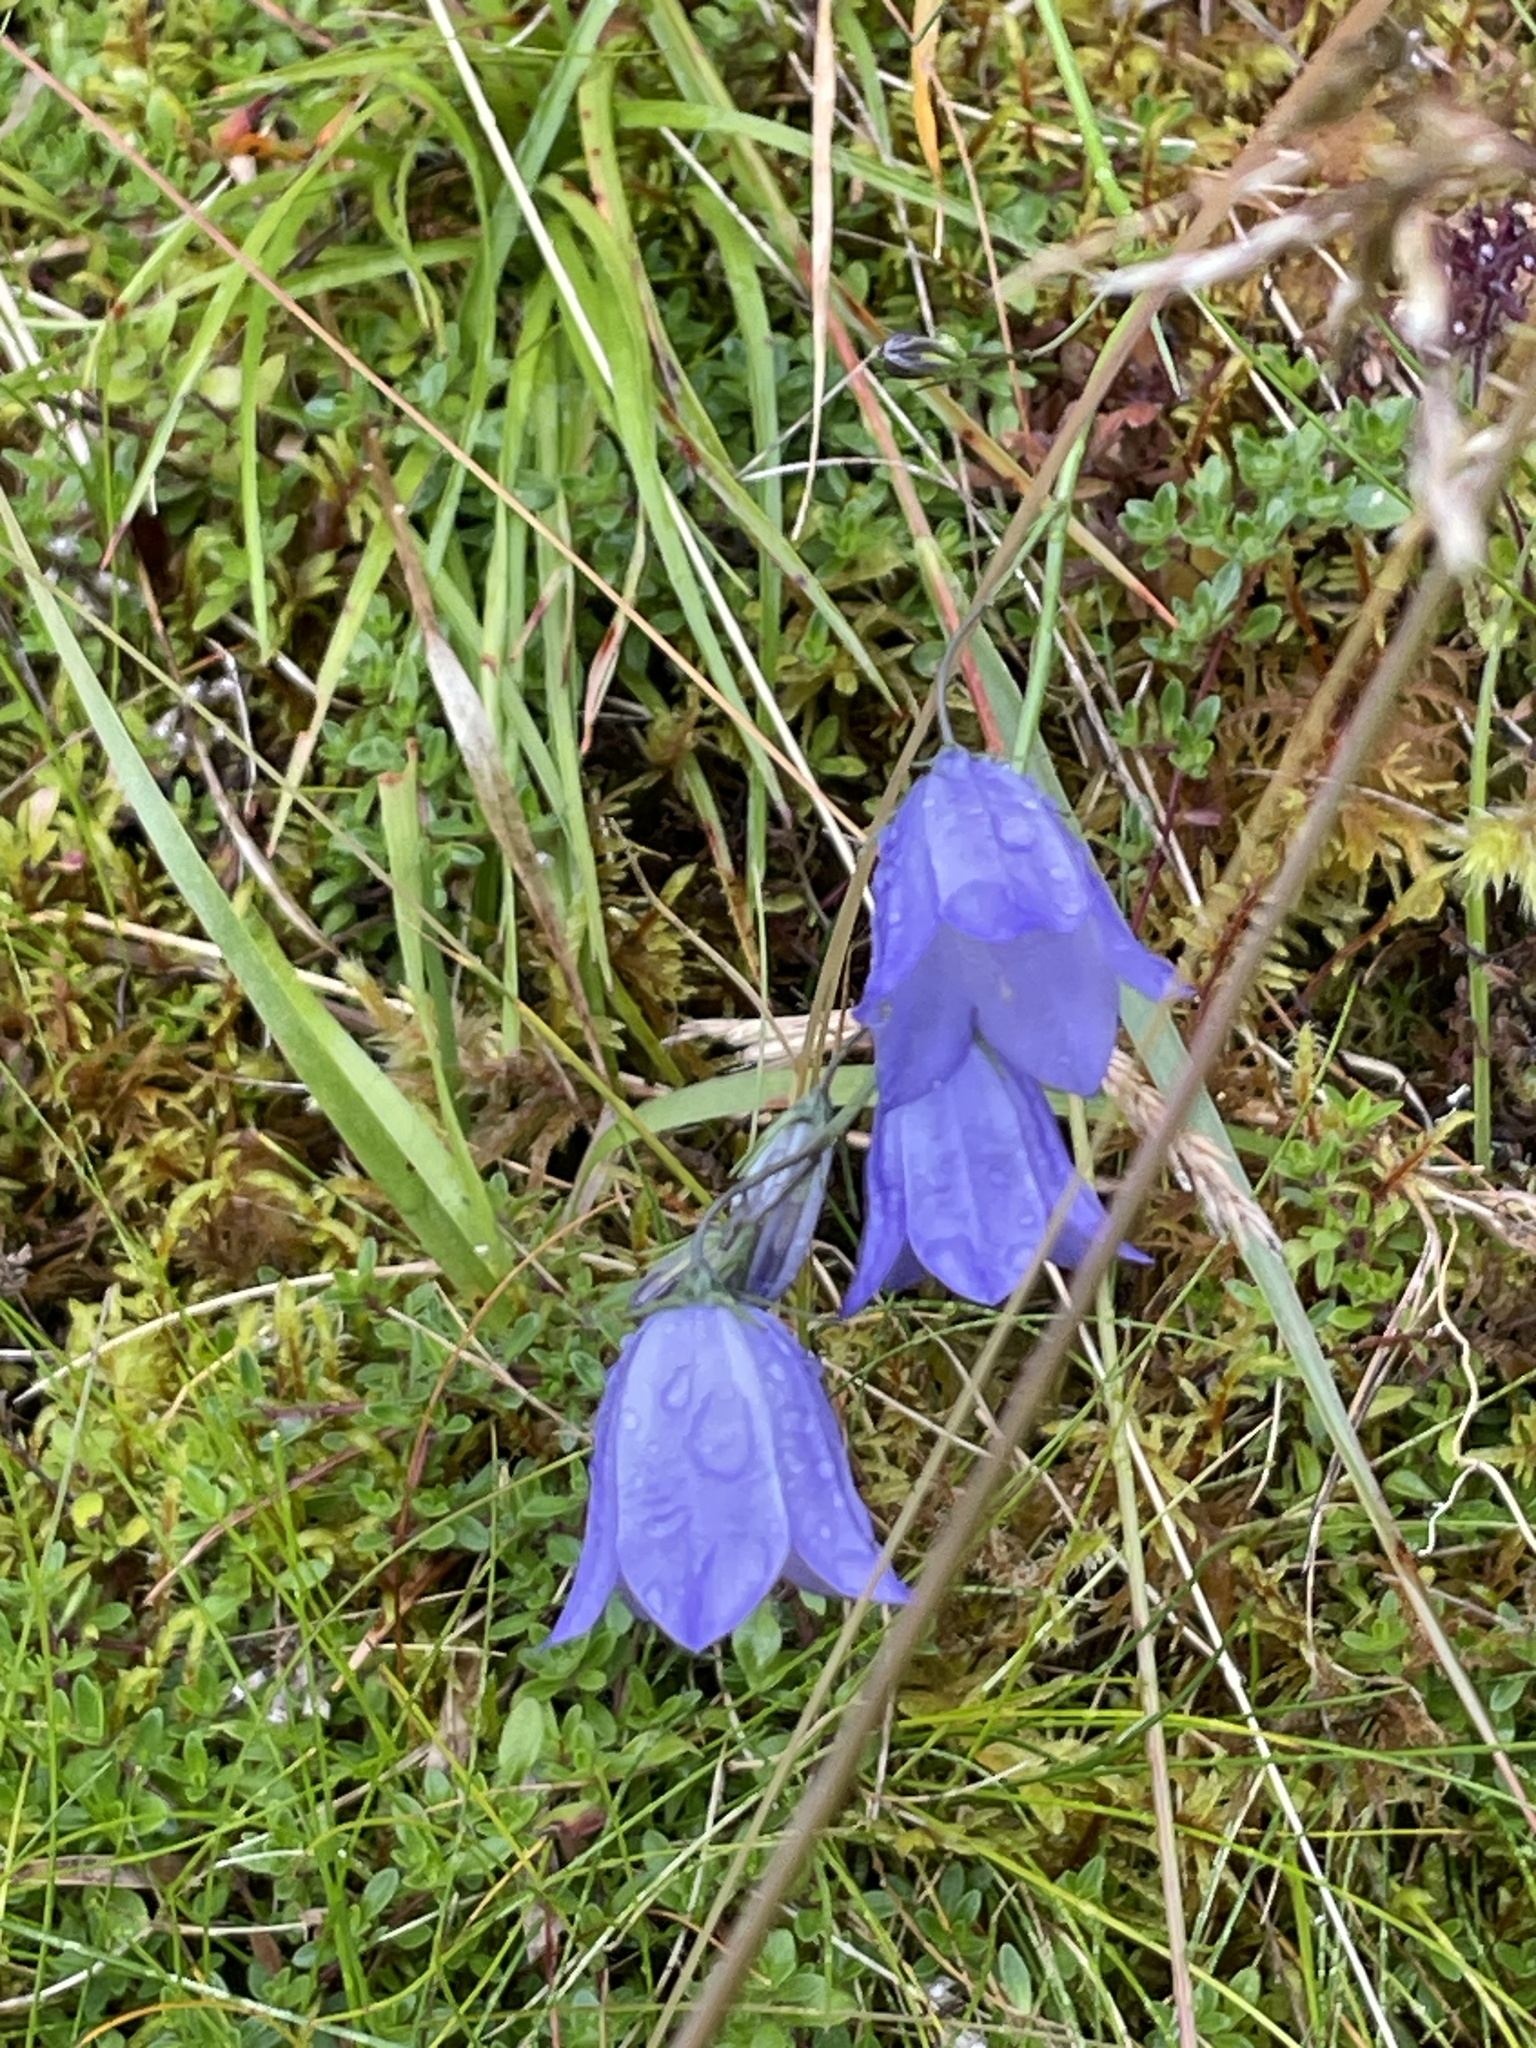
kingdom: Plantae
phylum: Tracheophyta
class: Magnoliopsida
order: Asterales
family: Campanulaceae
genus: Campanula
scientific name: Campanula rotundifolia
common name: Harebell
